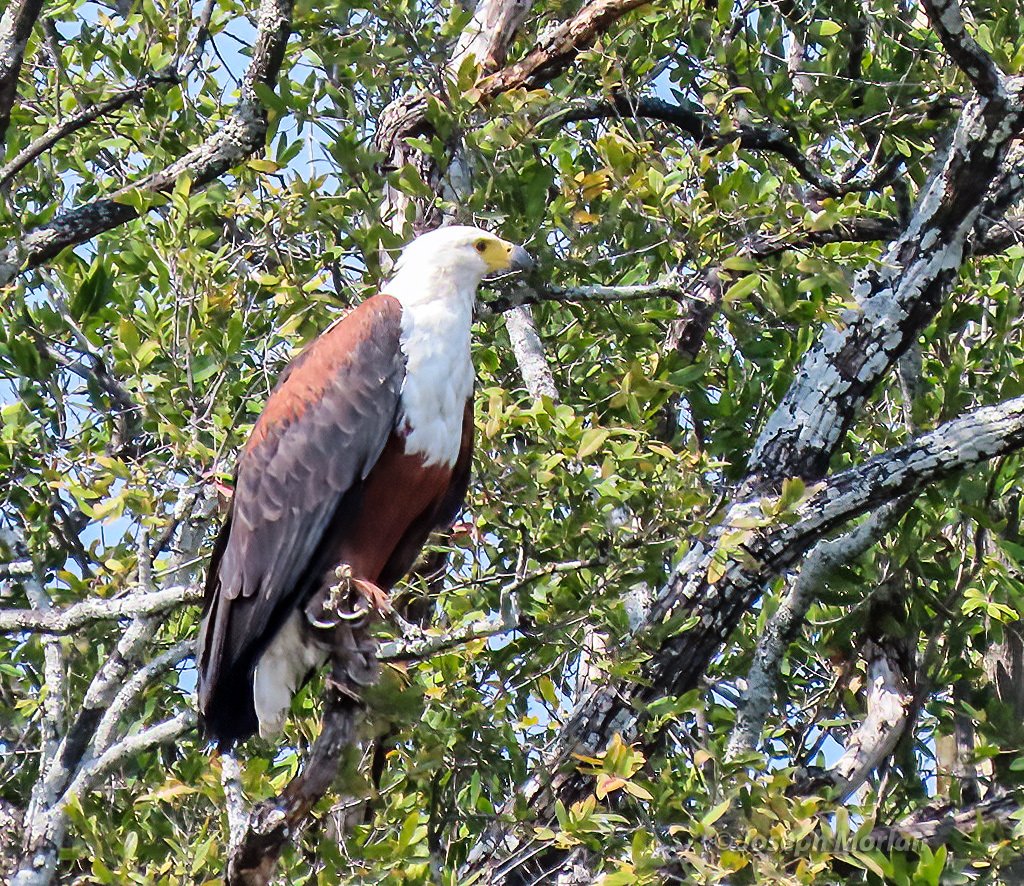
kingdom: Animalia
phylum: Chordata
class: Aves
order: Accipitriformes
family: Accipitridae
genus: Haliaeetus
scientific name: Haliaeetus vocifer
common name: African fish eagle
